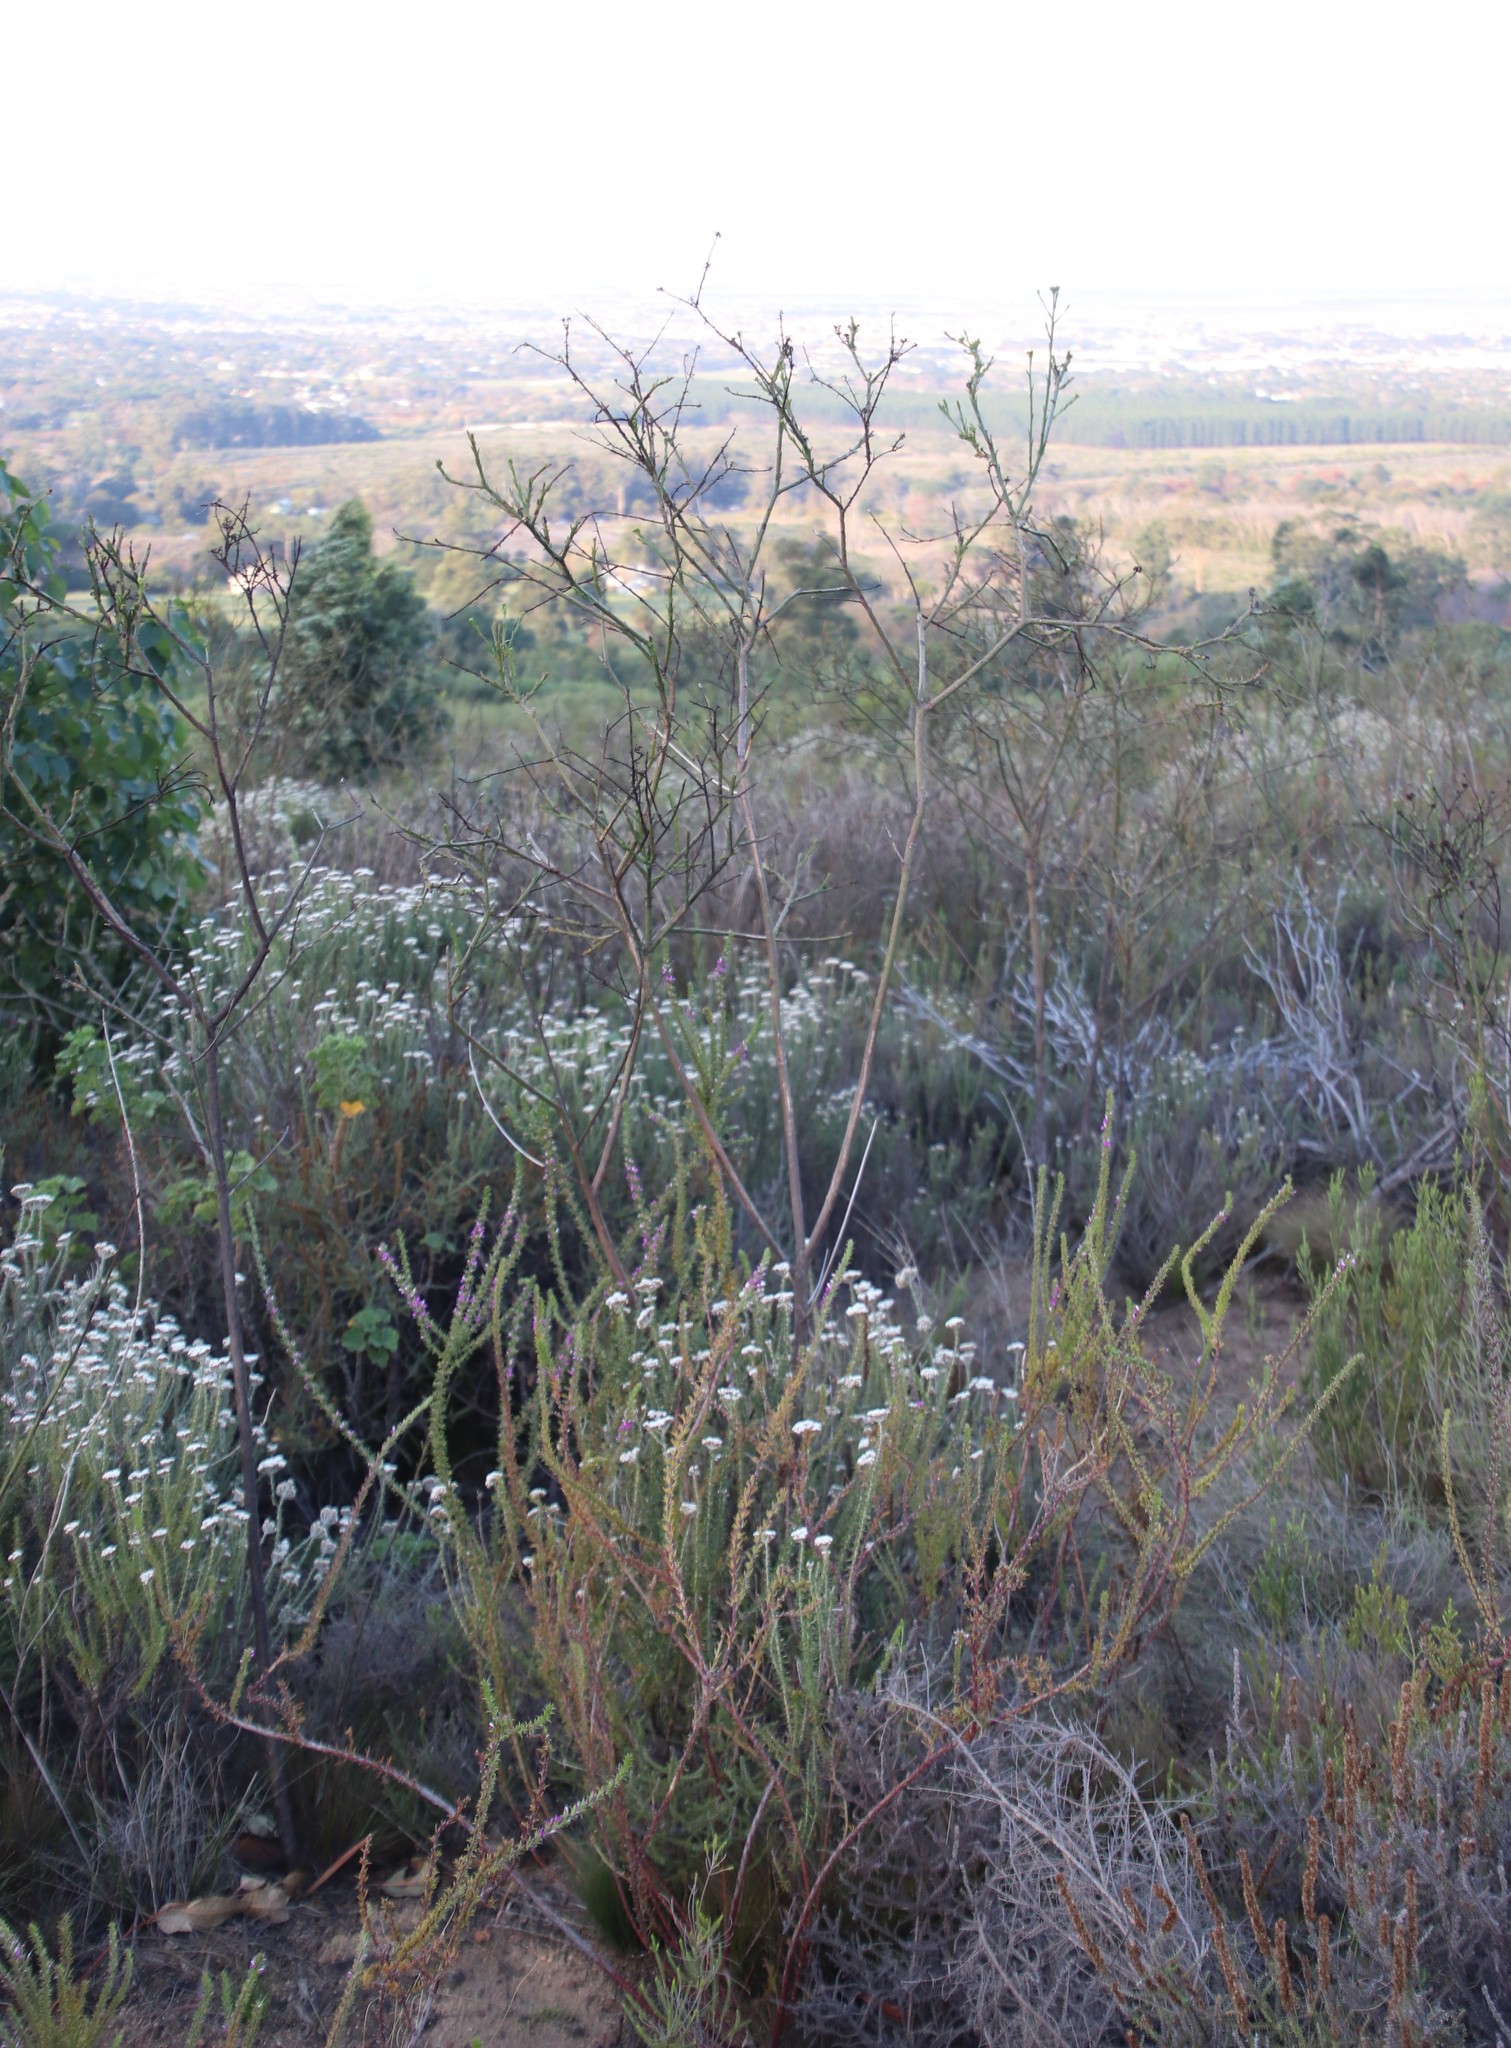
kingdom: Plantae
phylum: Tracheophyta
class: Magnoliopsida
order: Santalales
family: Thesiaceae
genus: Thesium
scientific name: Thesium strictum
